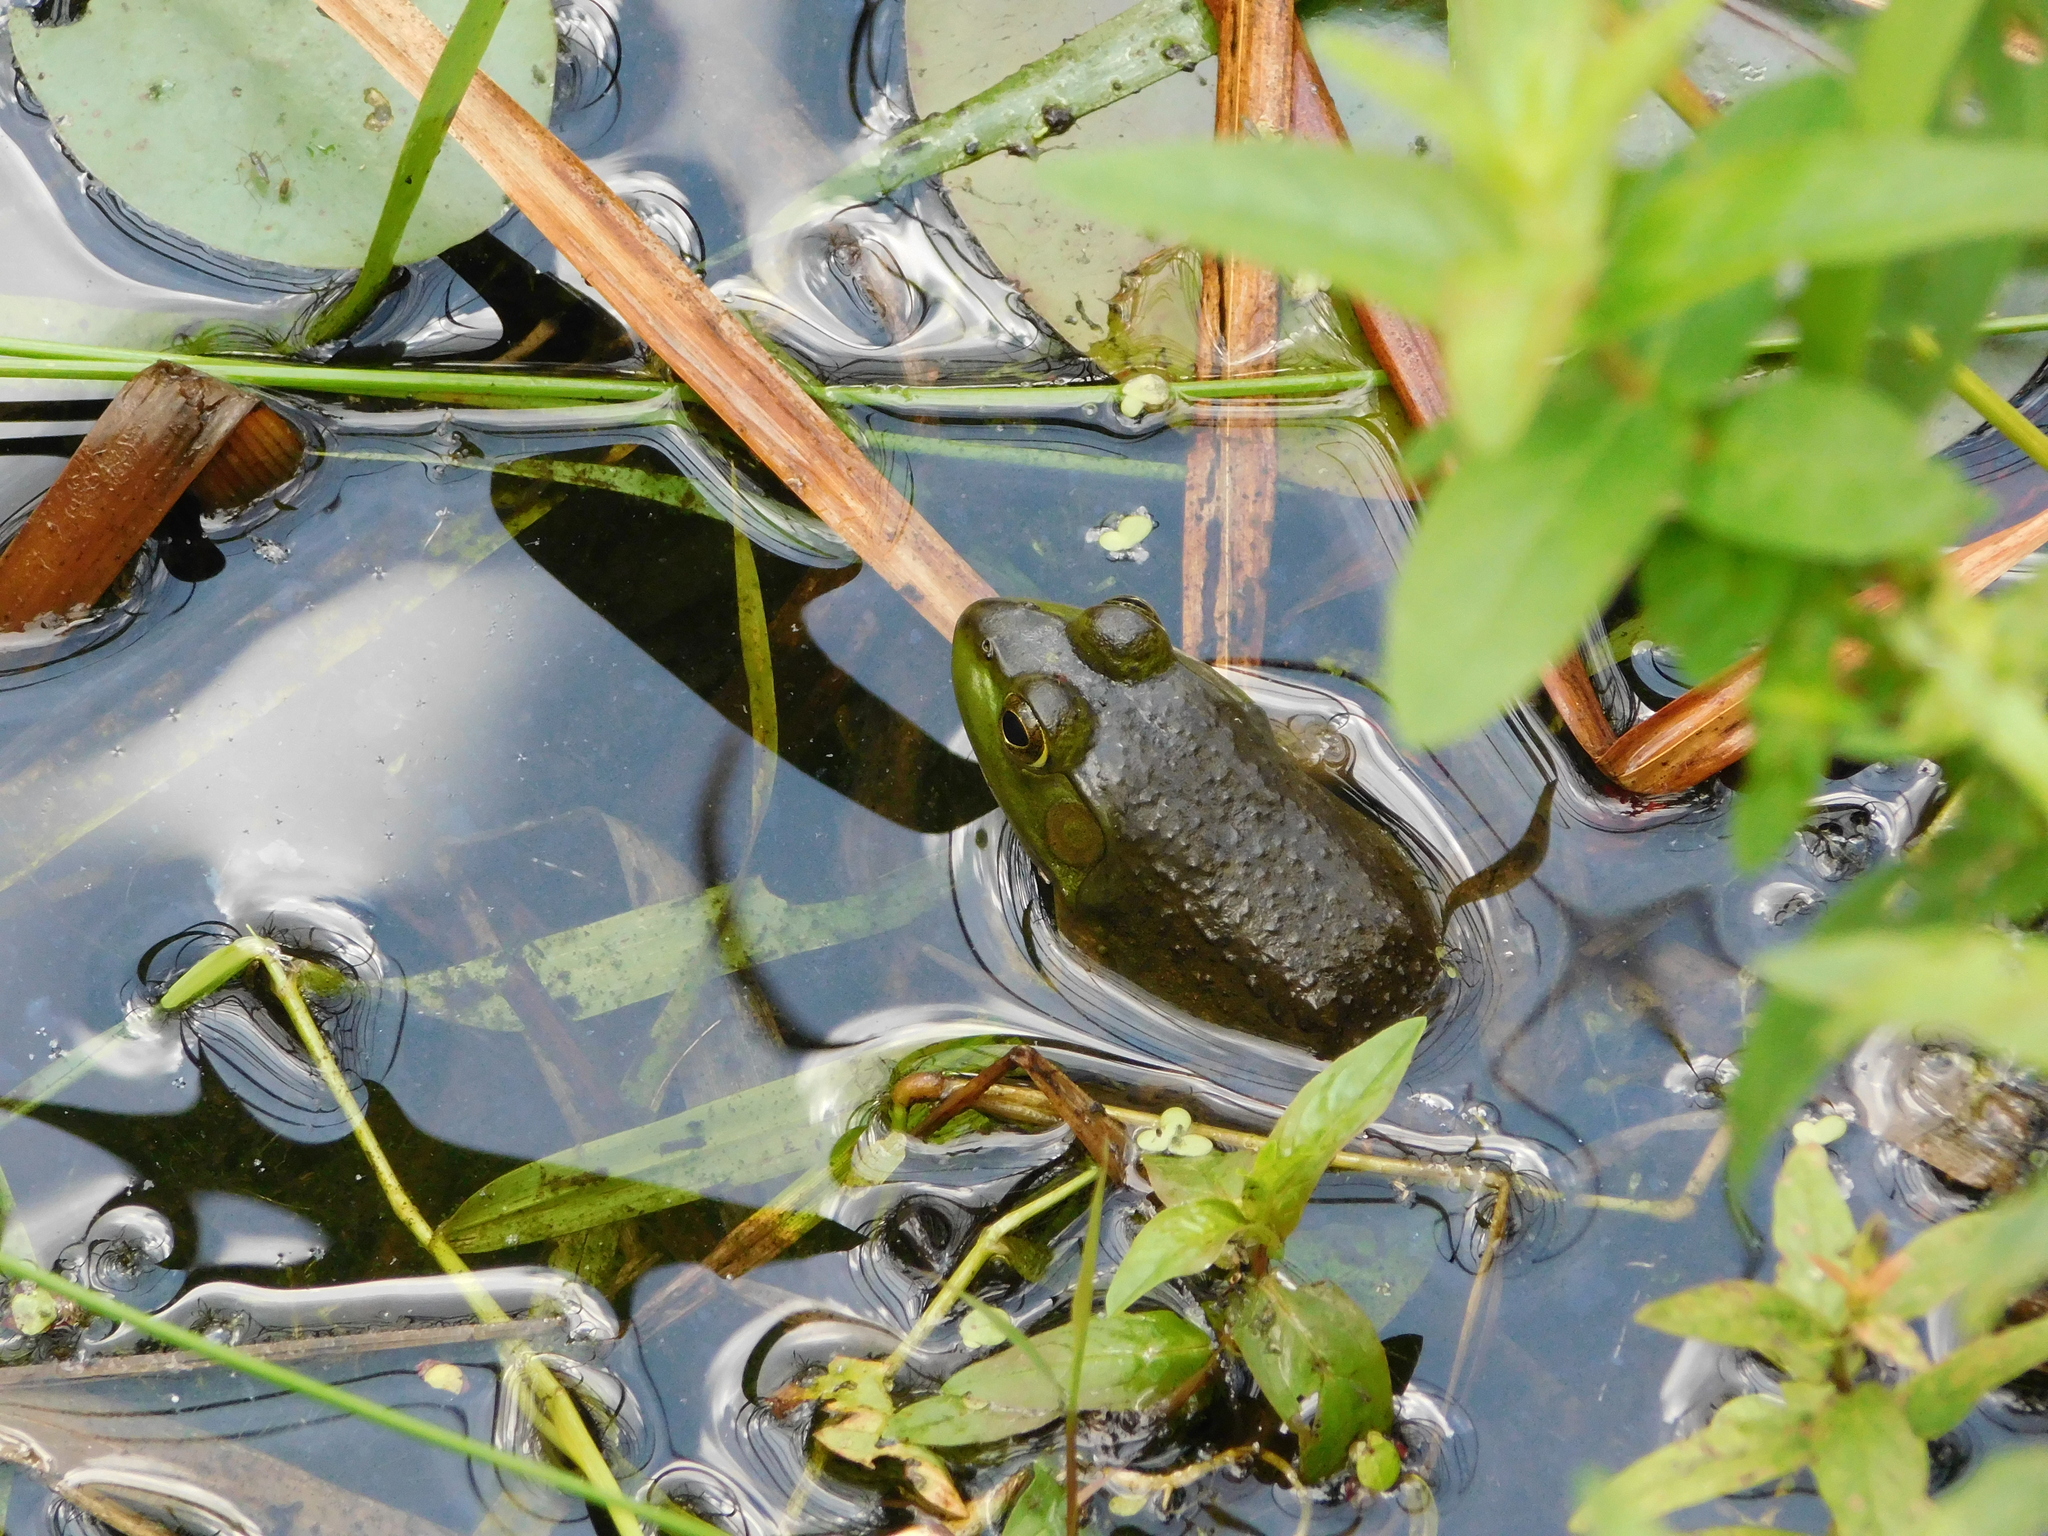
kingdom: Animalia
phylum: Chordata
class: Amphibia
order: Anura
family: Ranidae
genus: Lithobates
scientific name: Lithobates catesbeianus
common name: American bullfrog
